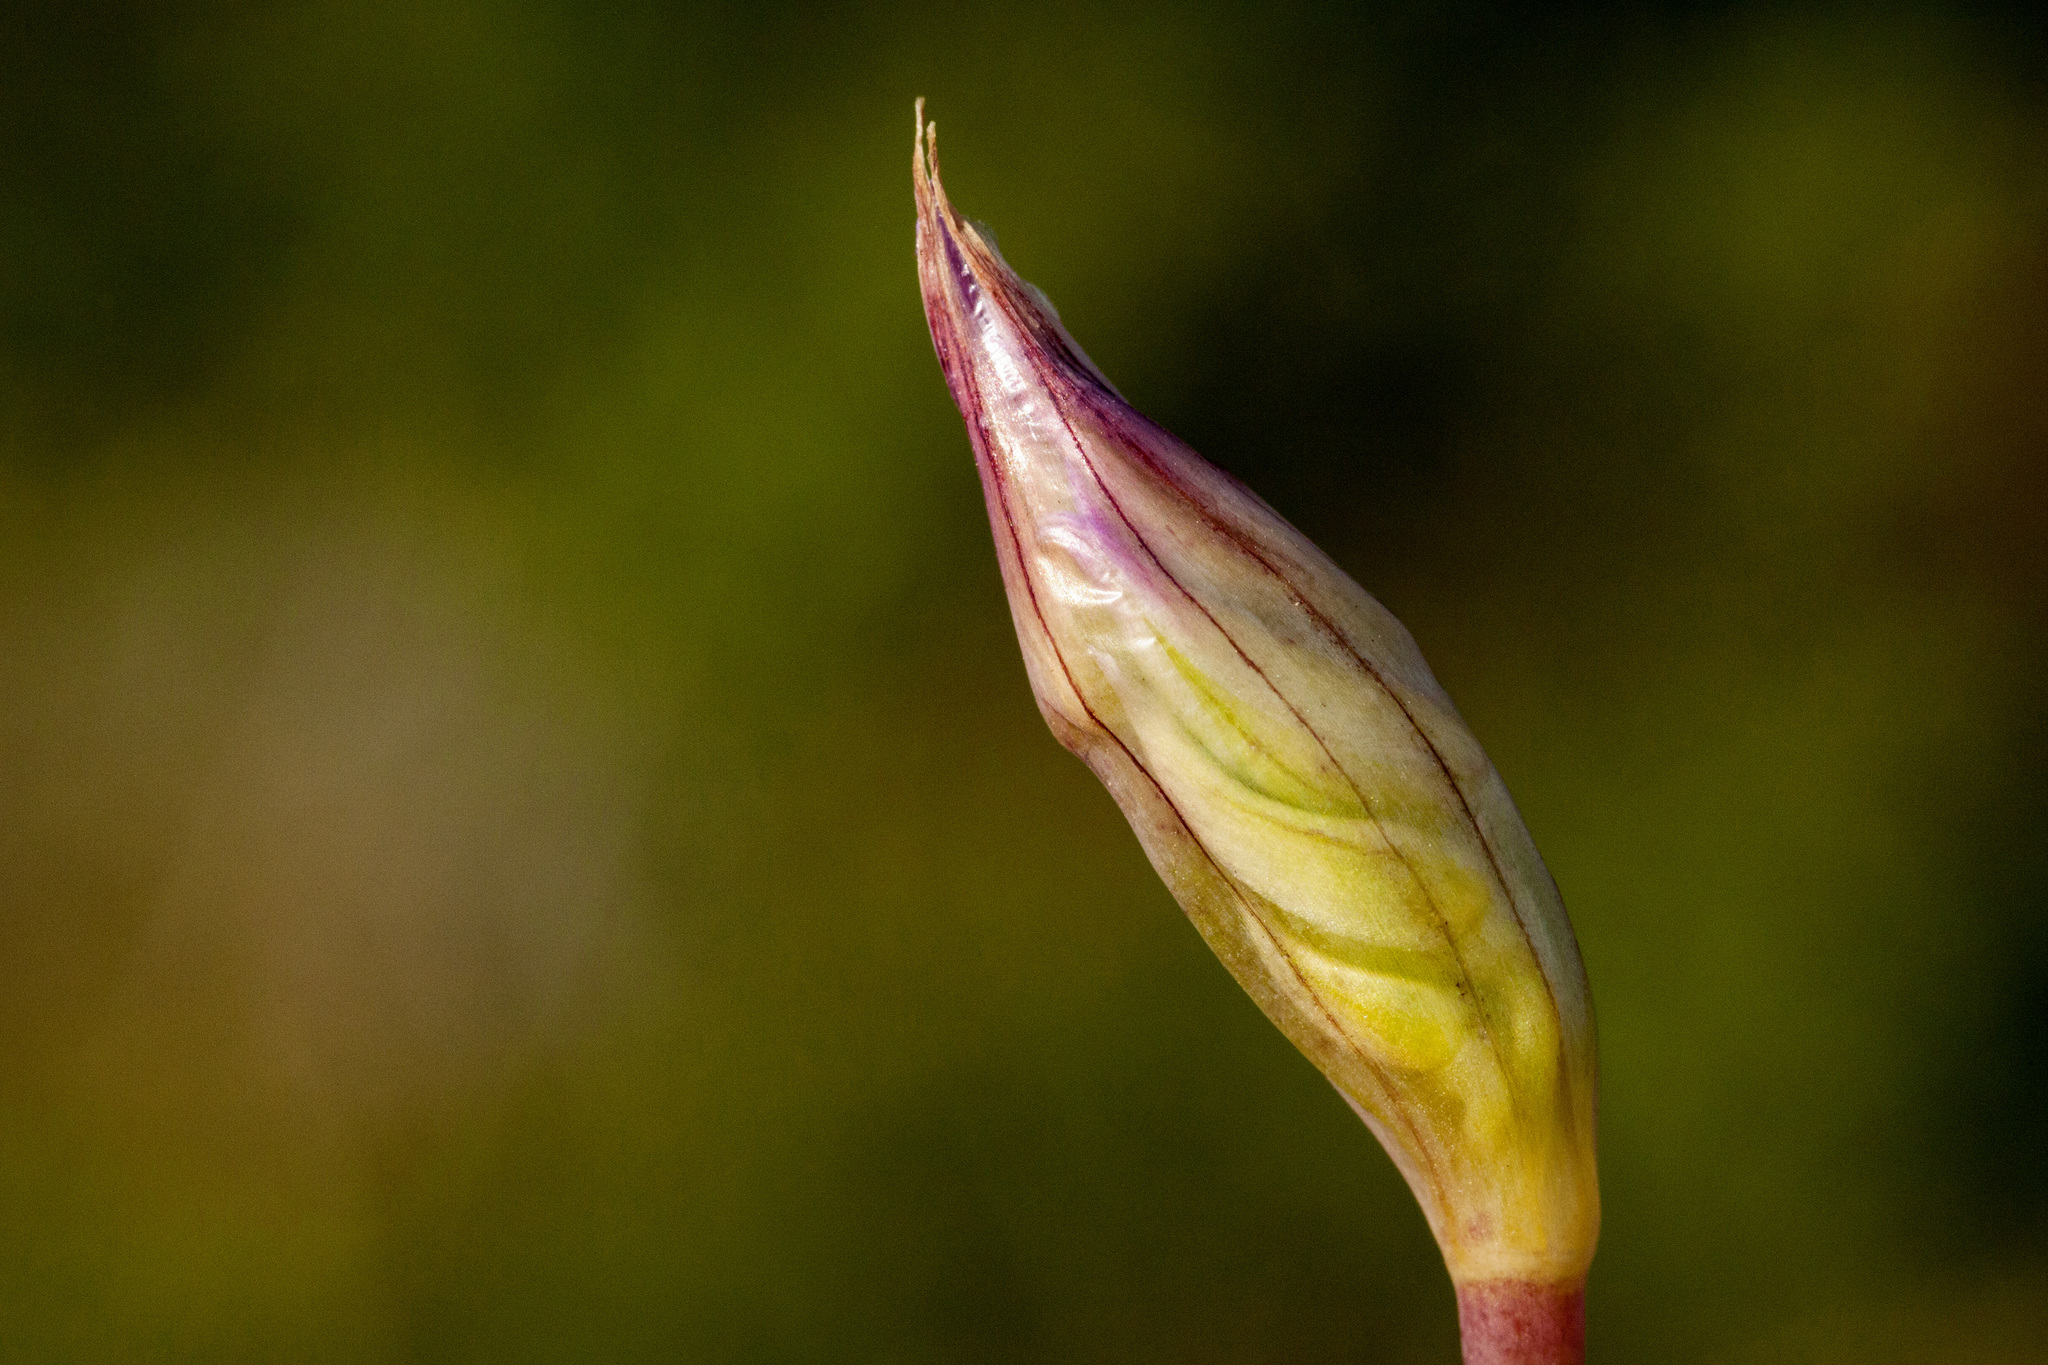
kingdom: Plantae
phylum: Tracheophyta
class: Liliopsida
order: Asparagales
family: Amaryllidaceae
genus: Allium
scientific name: Allium acuminatum
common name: Hooker's onion
